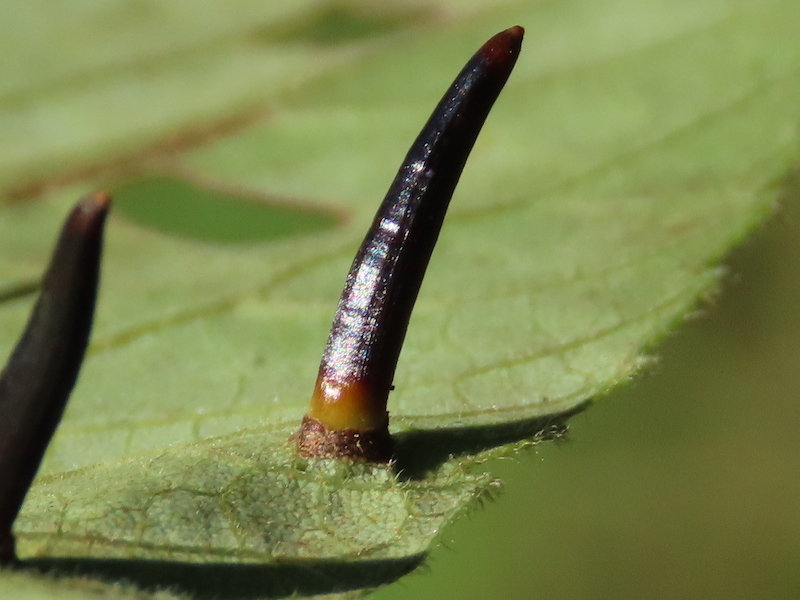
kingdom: Animalia
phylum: Arthropoda
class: Insecta
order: Diptera
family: Cecidomyiidae
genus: Caryomyia
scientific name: Caryomyia subulata
